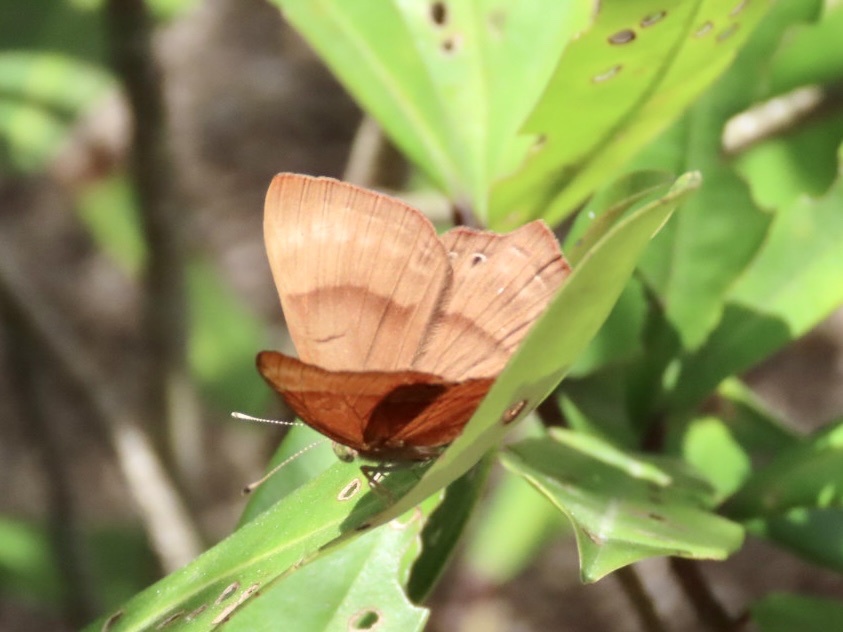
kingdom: Animalia
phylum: Arthropoda
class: Insecta
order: Lepidoptera
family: Lycaenidae
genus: Abisara
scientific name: Abisara echeria
